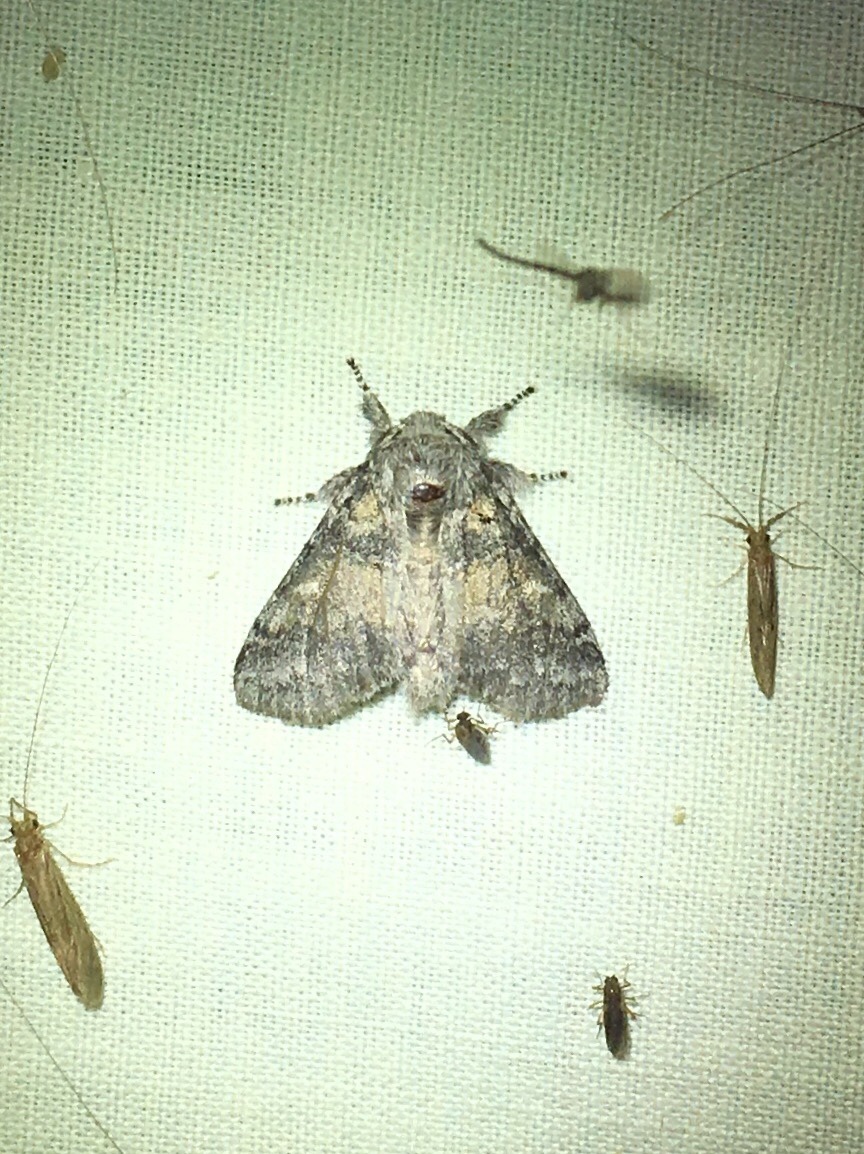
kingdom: Animalia
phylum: Arthropoda
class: Insecta
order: Lepidoptera
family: Notodontidae
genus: Gluphisia
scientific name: Gluphisia septentrionis
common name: Common gluphisia
